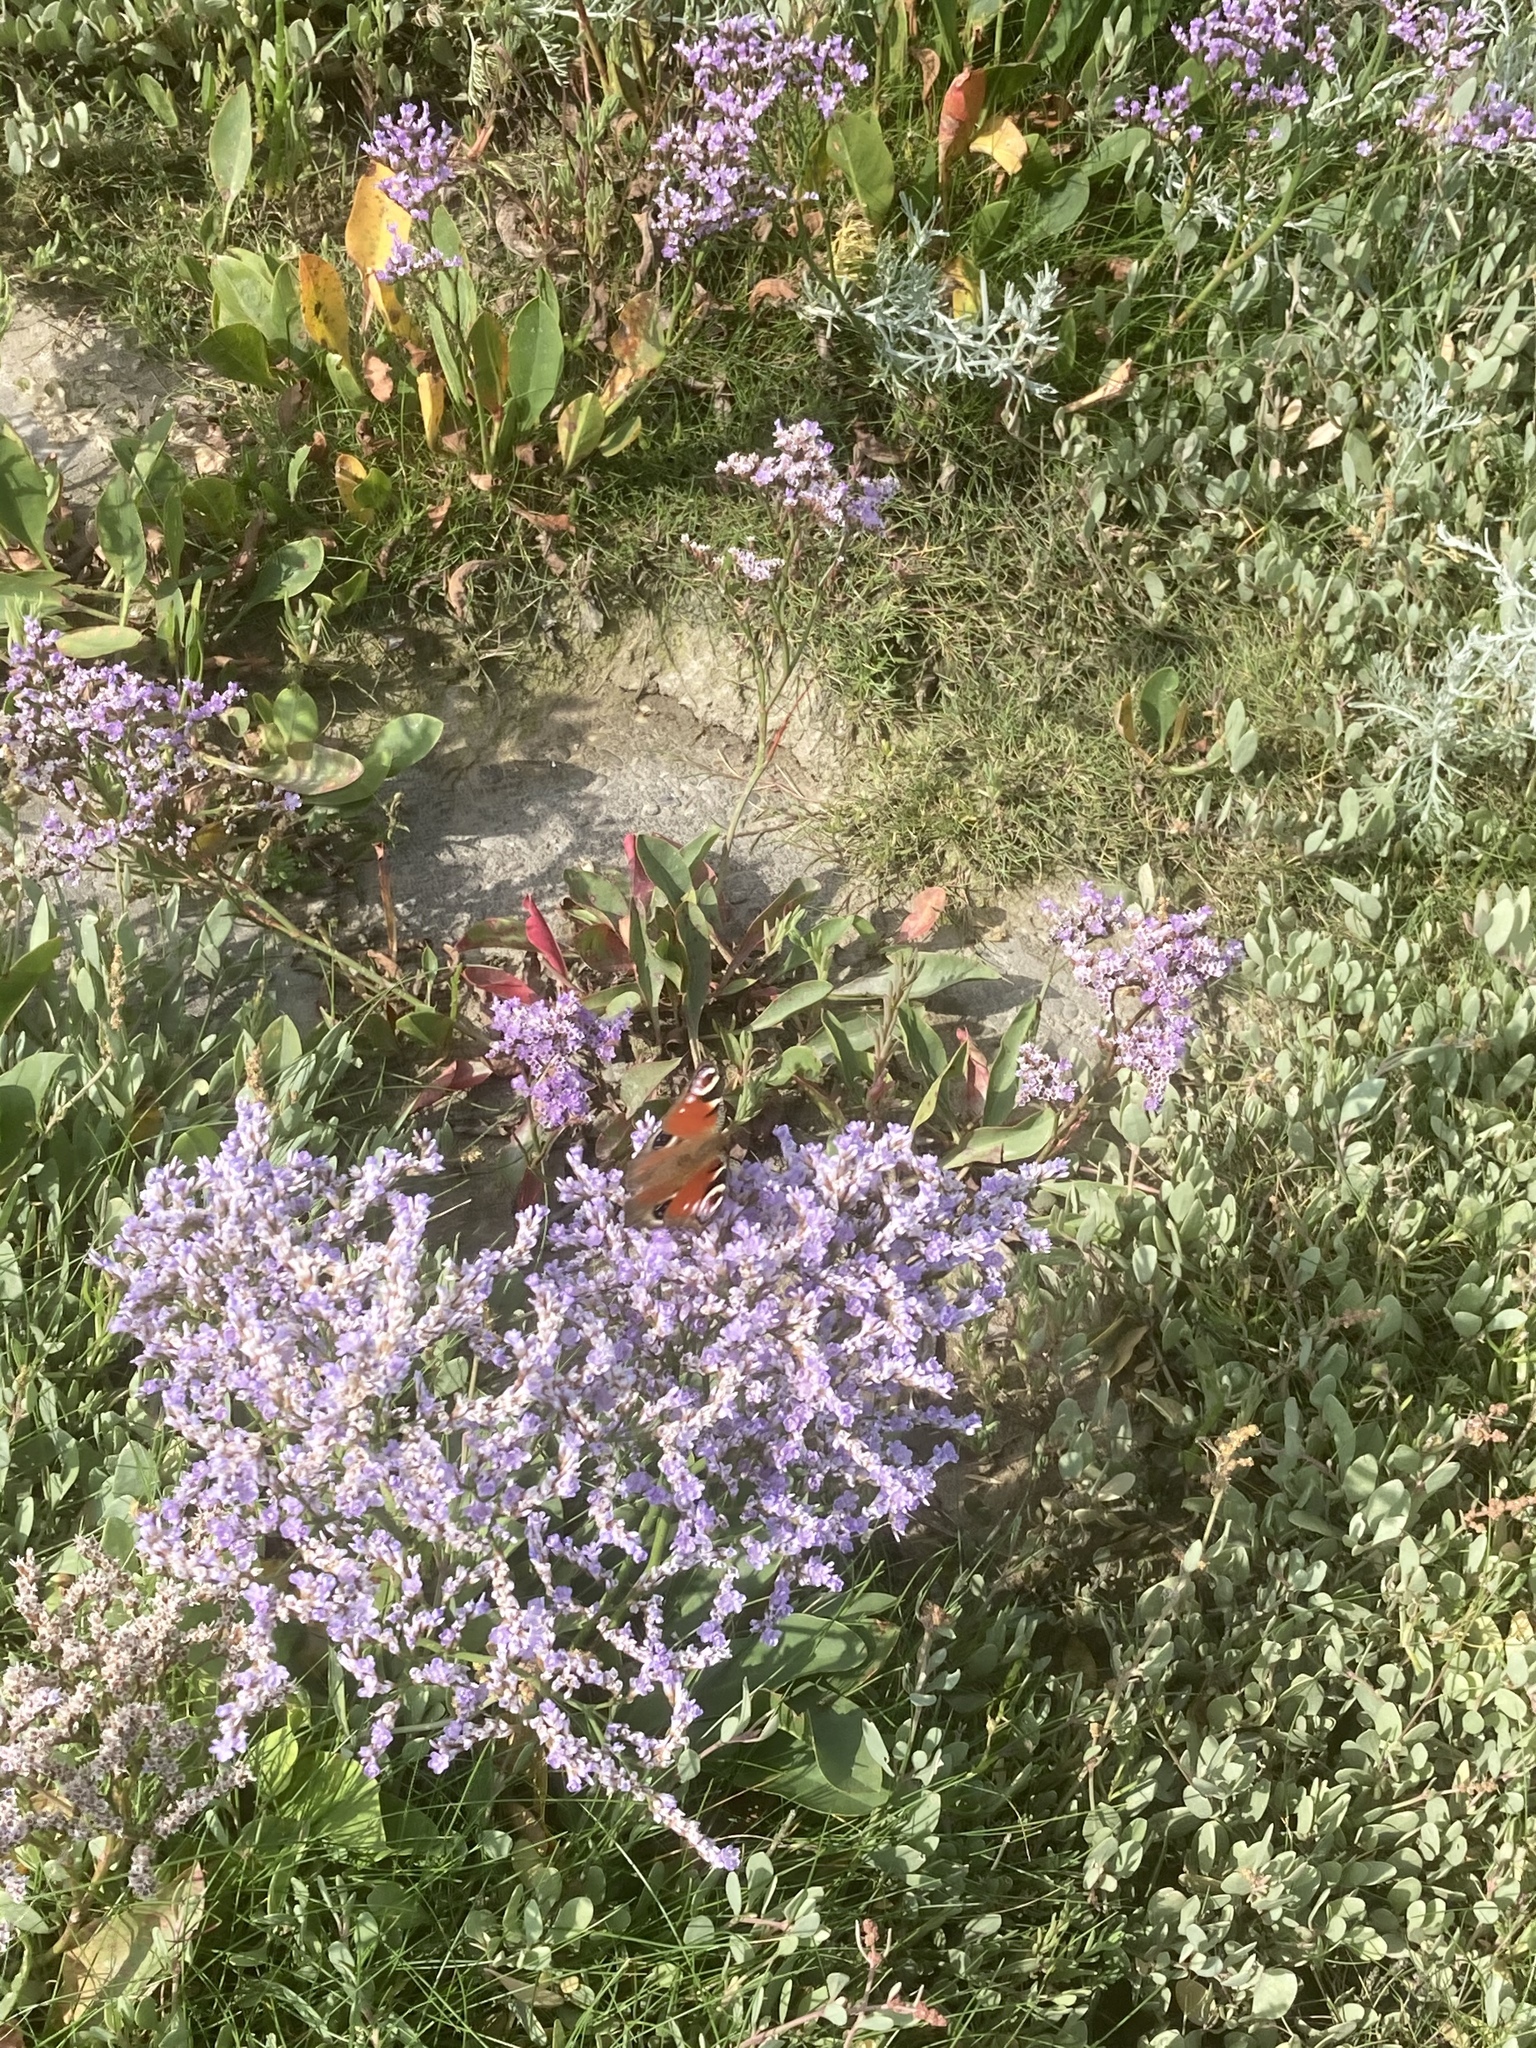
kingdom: Animalia
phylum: Arthropoda
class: Insecta
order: Lepidoptera
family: Nymphalidae
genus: Aglais
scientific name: Aglais io
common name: Peacock
